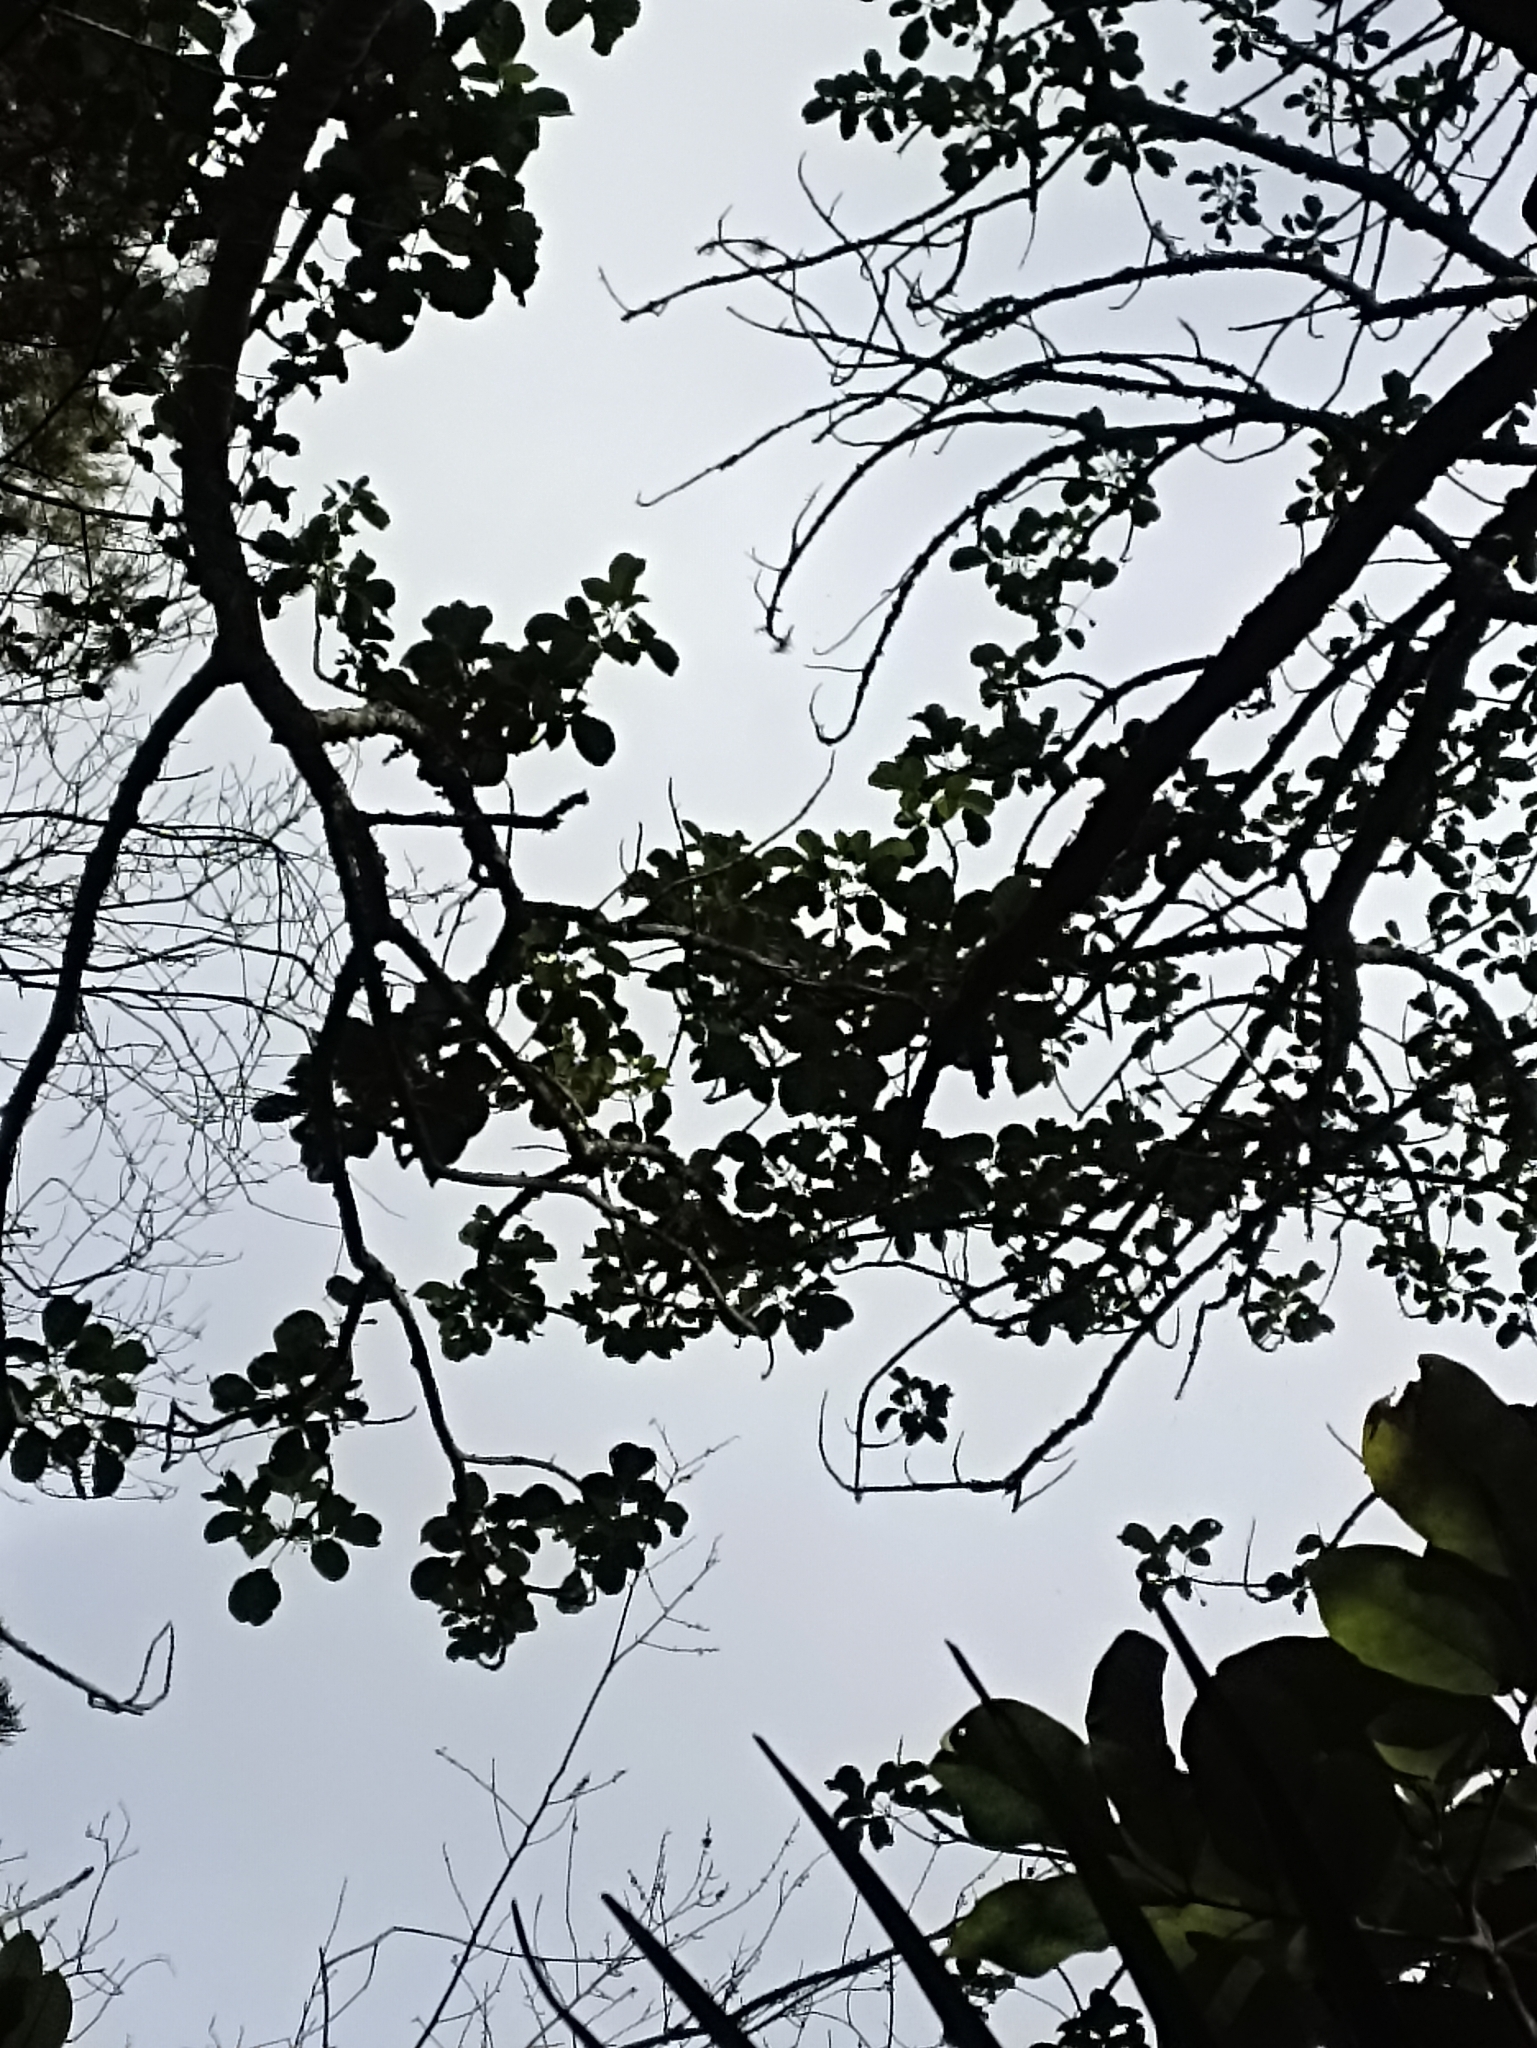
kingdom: Plantae
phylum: Tracheophyta
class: Magnoliopsida
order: Lamiales
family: Lamiaceae
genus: Vitex
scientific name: Vitex lucens
